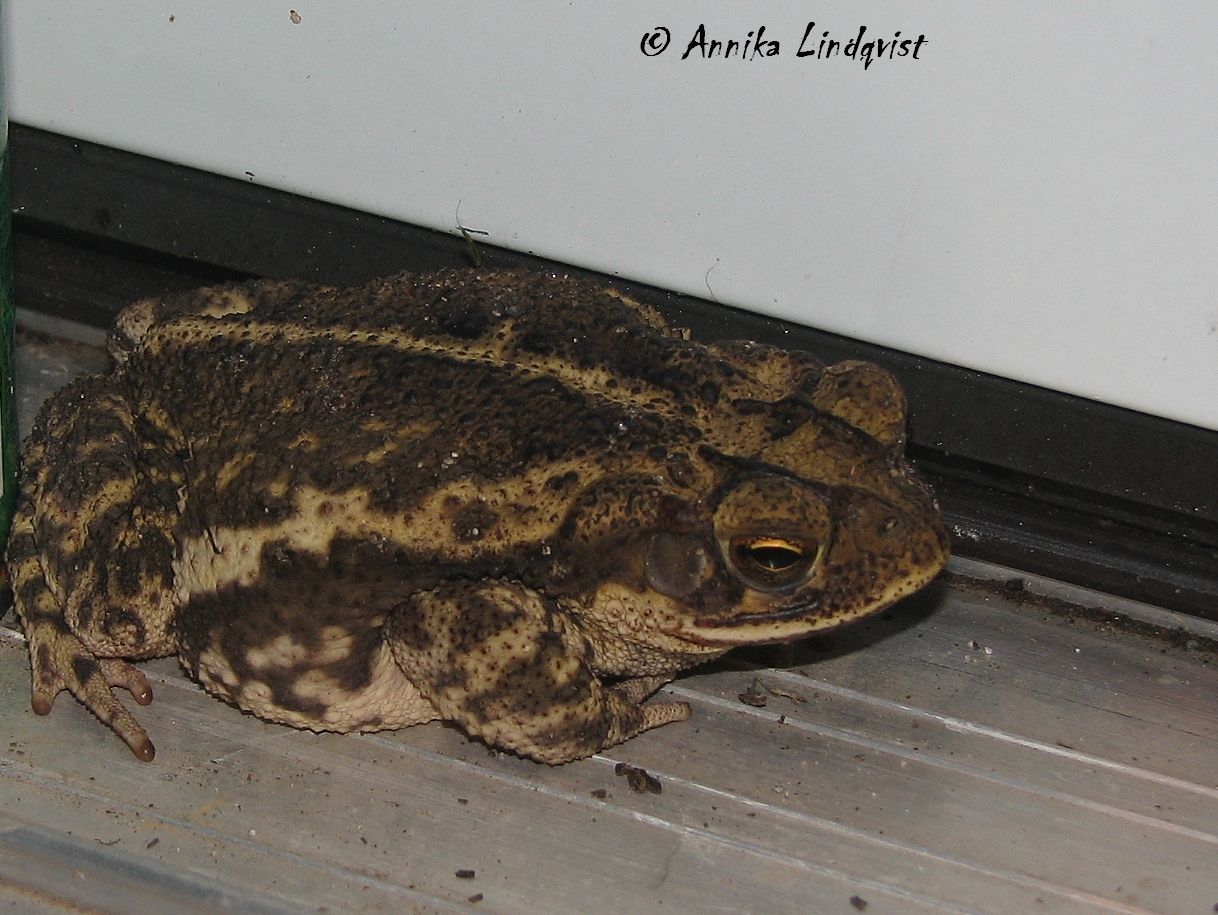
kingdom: Animalia
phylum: Chordata
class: Amphibia
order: Anura
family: Bufonidae
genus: Incilius
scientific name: Incilius nebulifer
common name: Gulf coast toad
